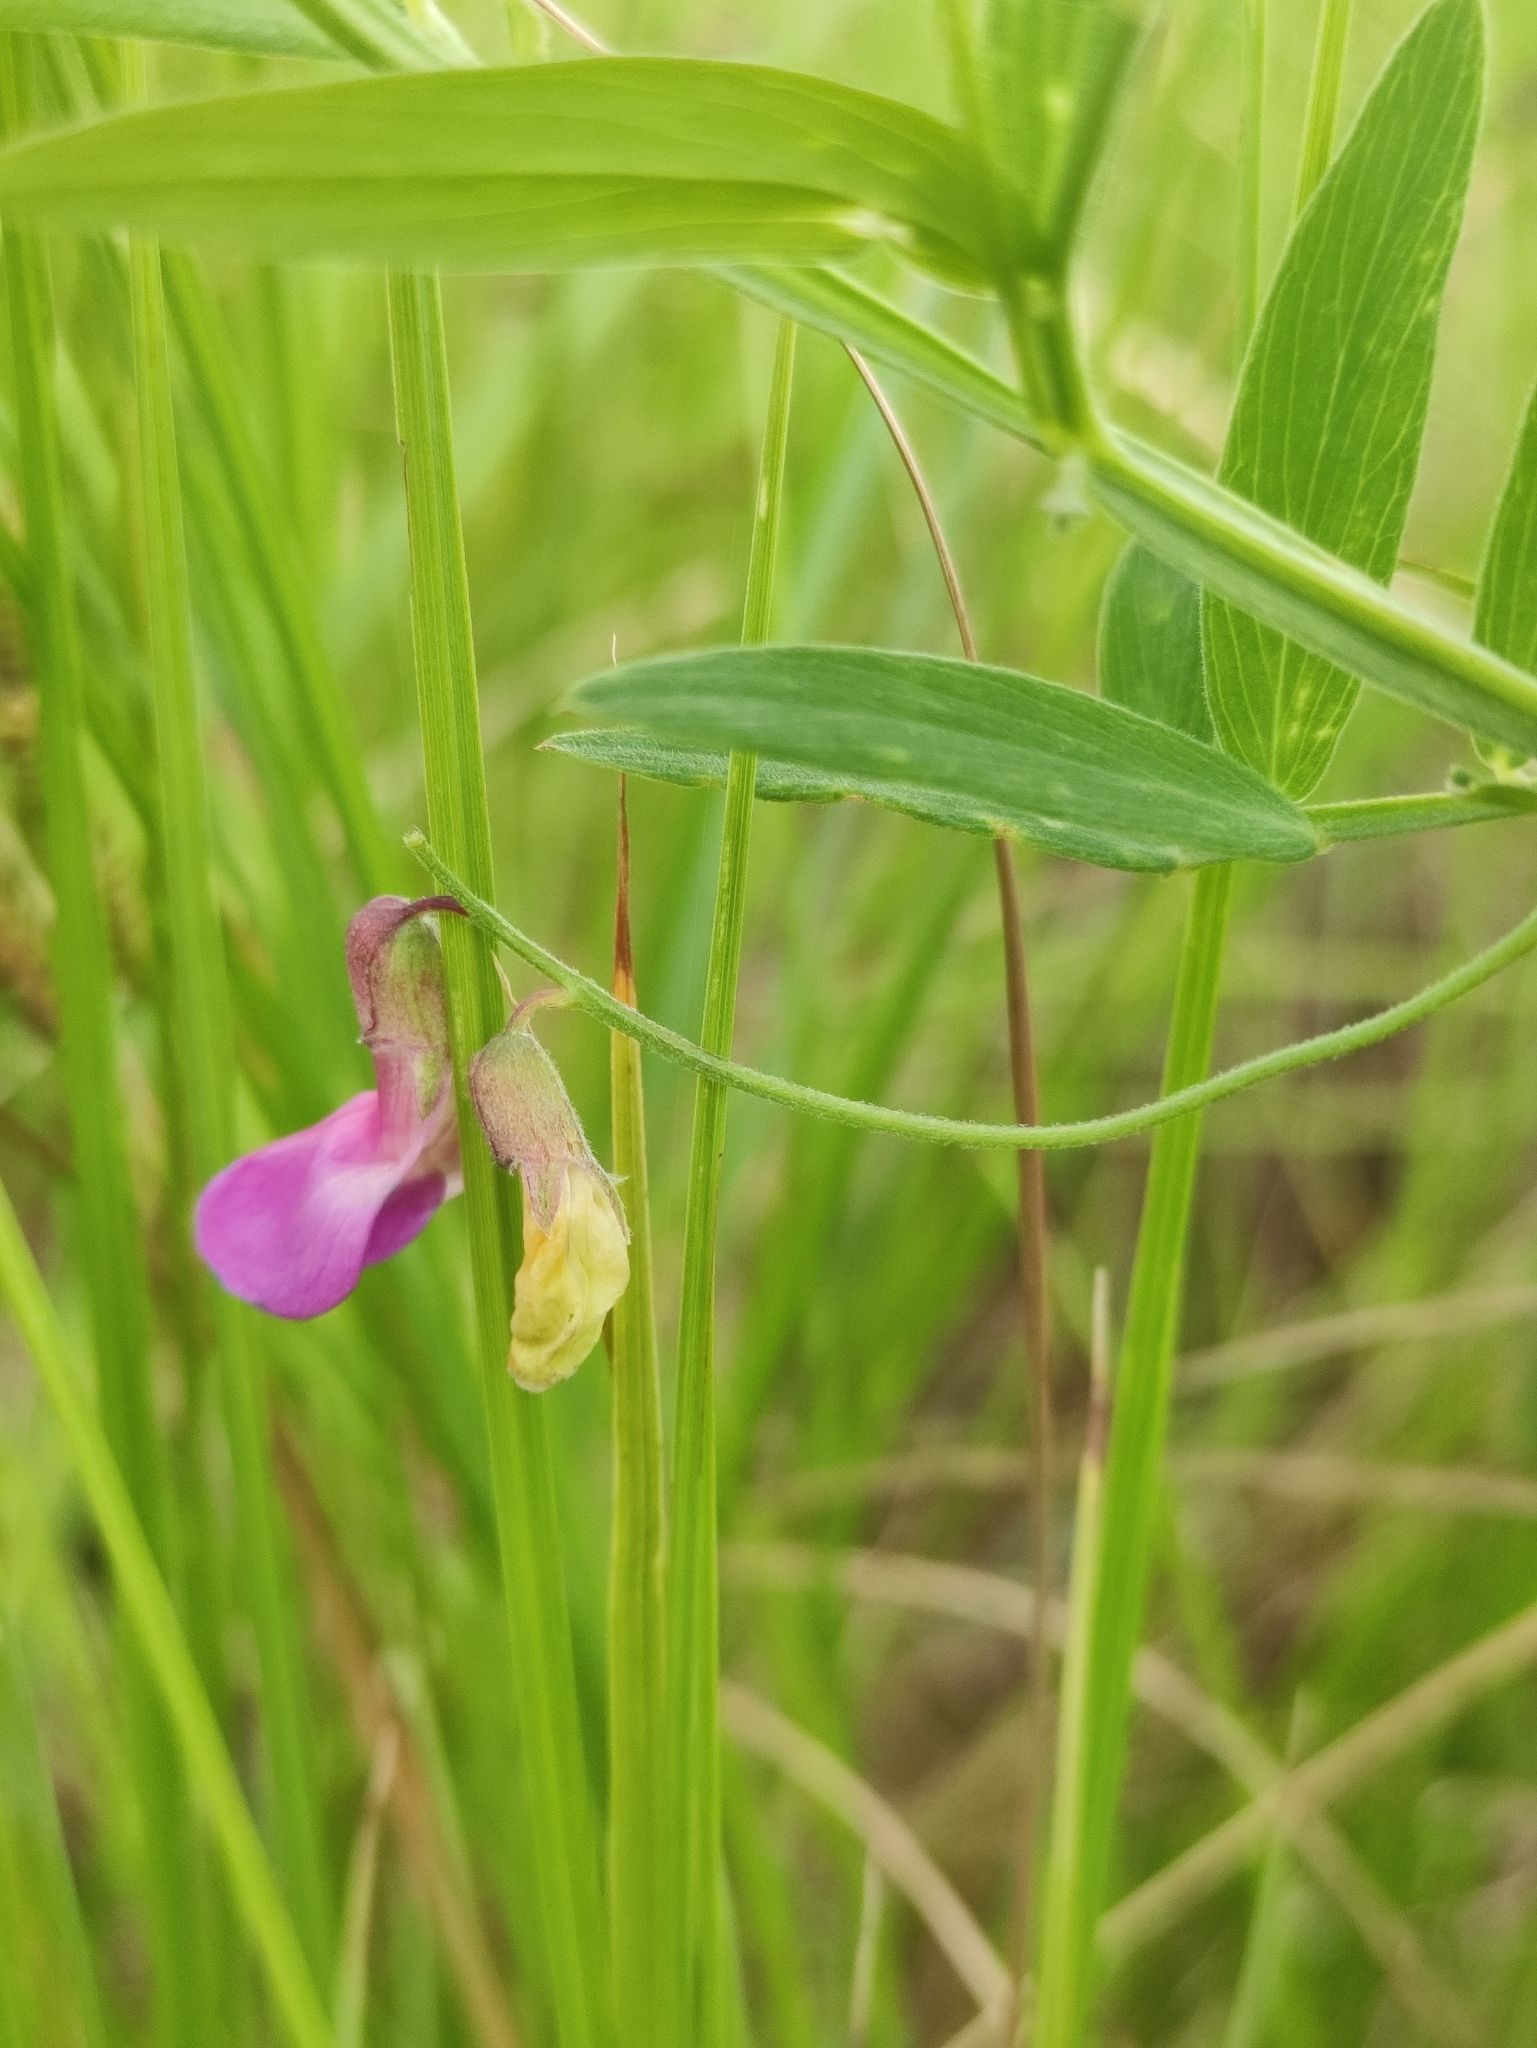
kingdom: Plantae
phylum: Tracheophyta
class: Magnoliopsida
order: Fabales
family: Fabaceae
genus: Lathyrus
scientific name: Lathyrus palustris
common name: Marsh pea
